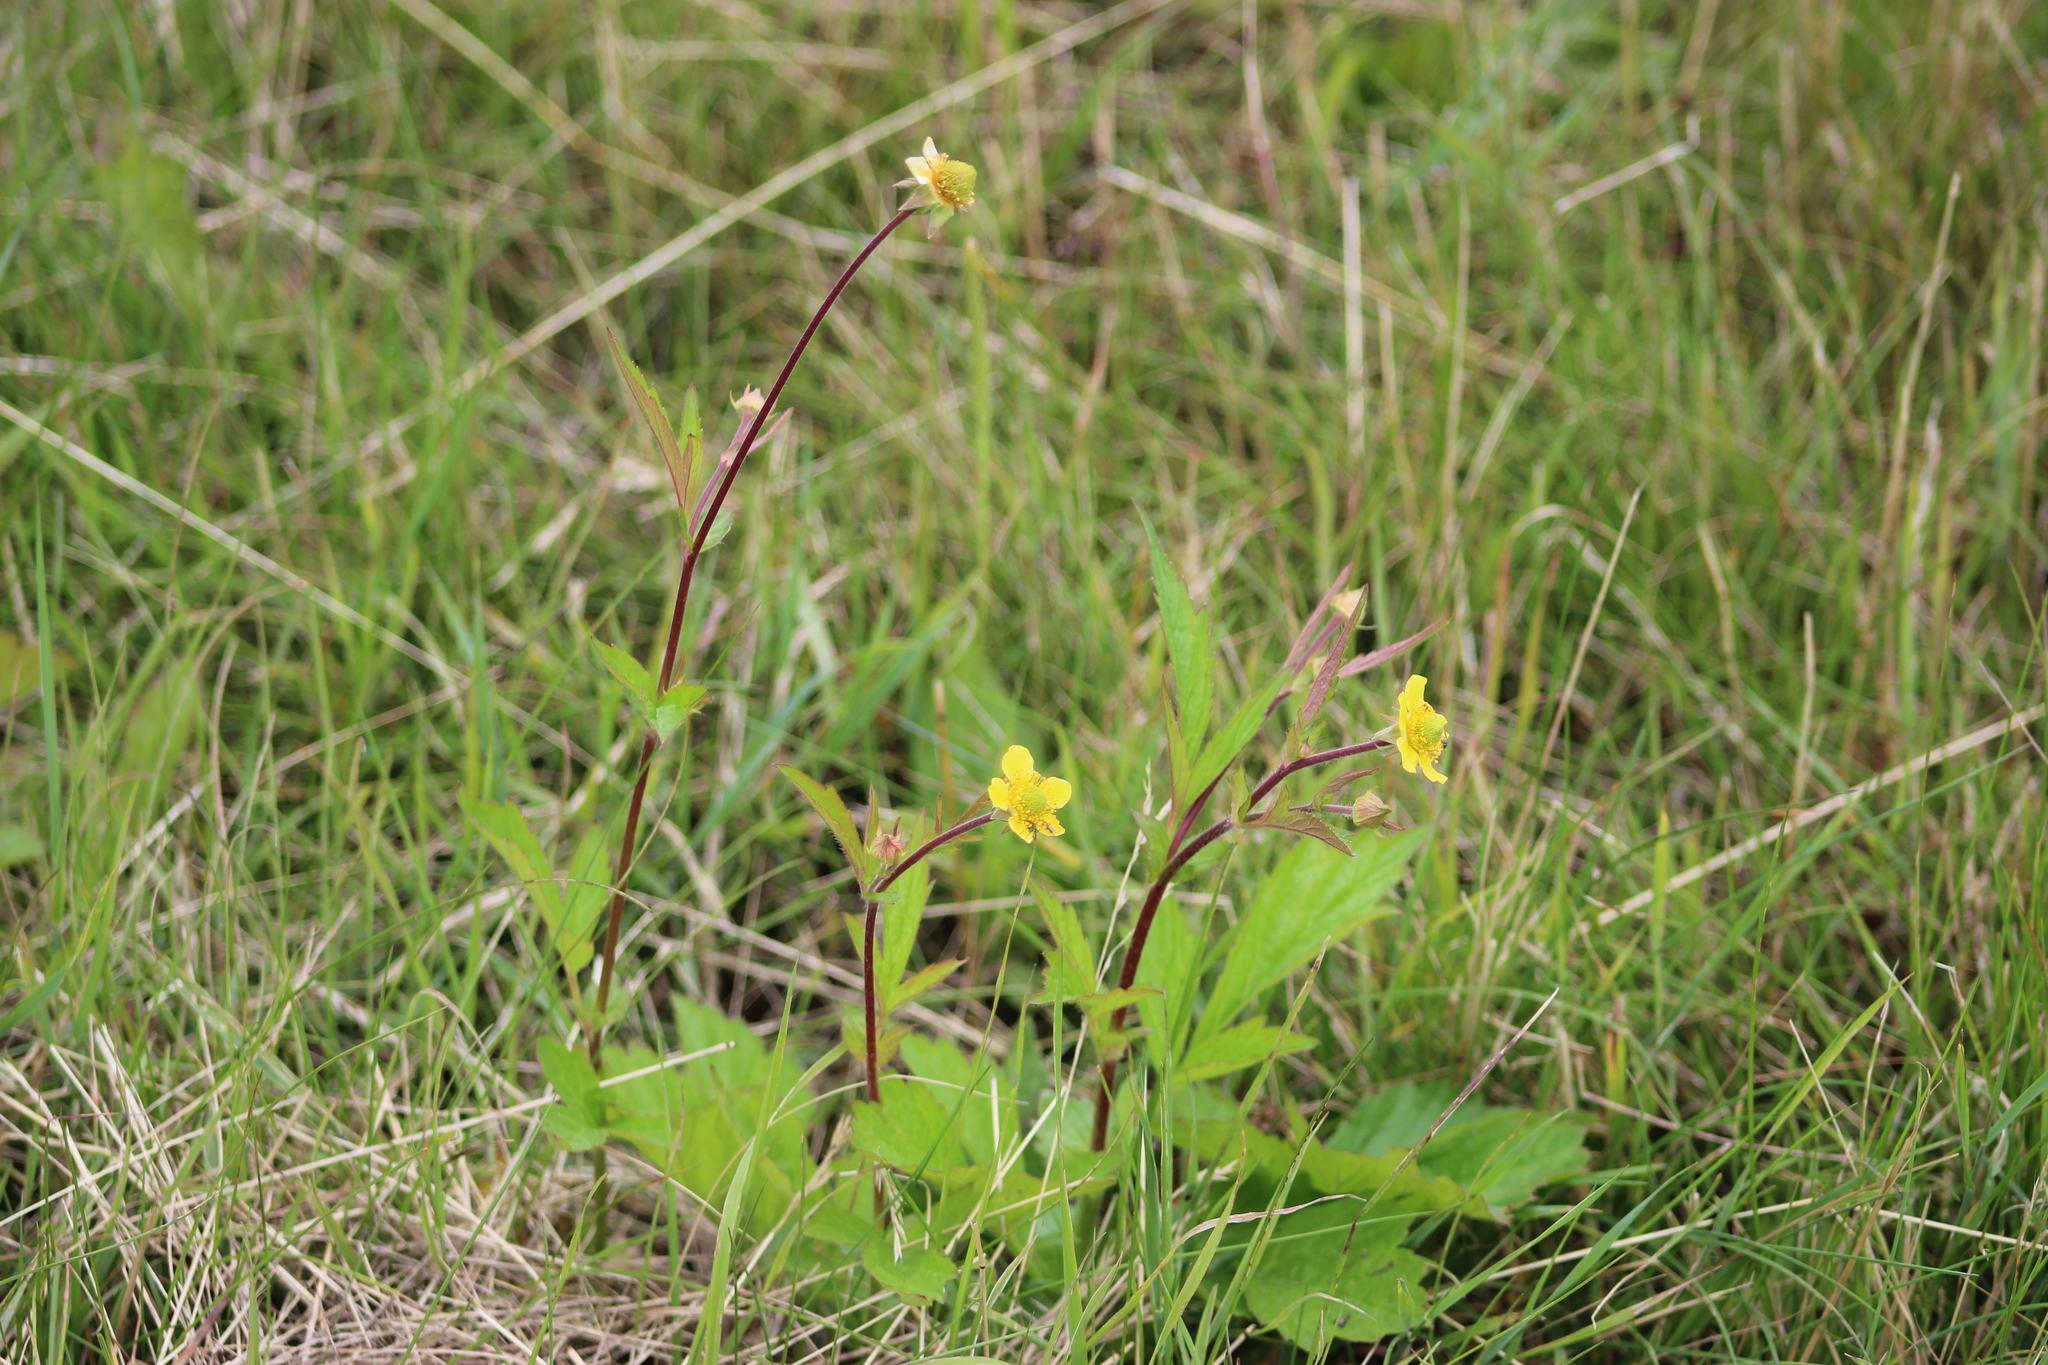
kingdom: Plantae
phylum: Tracheophyta
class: Magnoliopsida
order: Rosales
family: Rosaceae
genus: Geum
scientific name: Geum aleppicum
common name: Yellow avens
